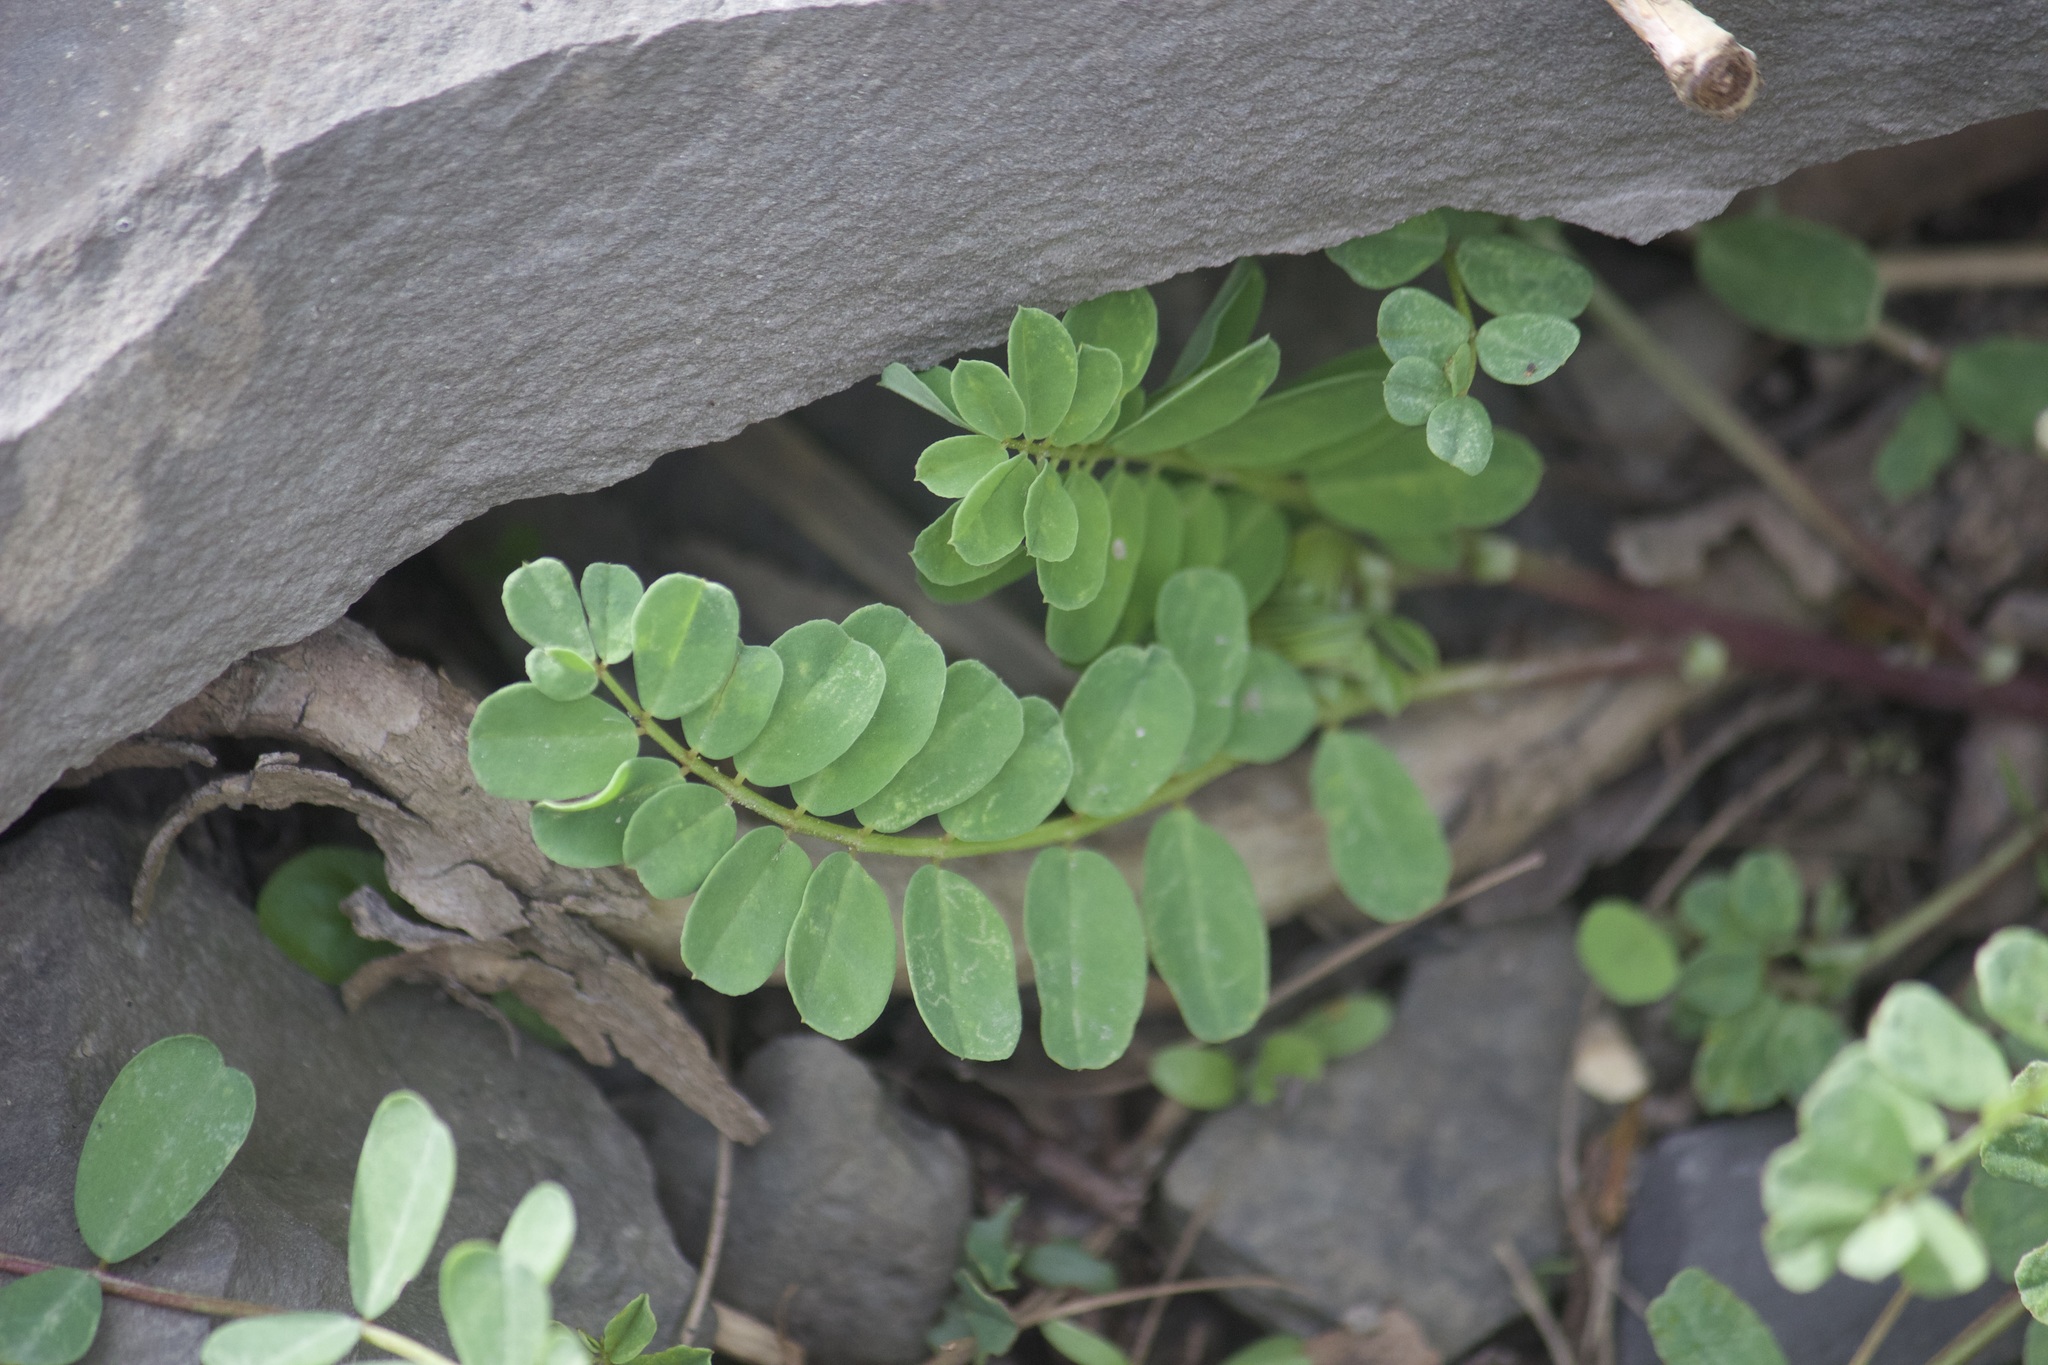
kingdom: Plantae
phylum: Tracheophyta
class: Magnoliopsida
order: Fabales
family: Fabaceae
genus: Coronilla
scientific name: Coronilla varia
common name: Crownvetch
